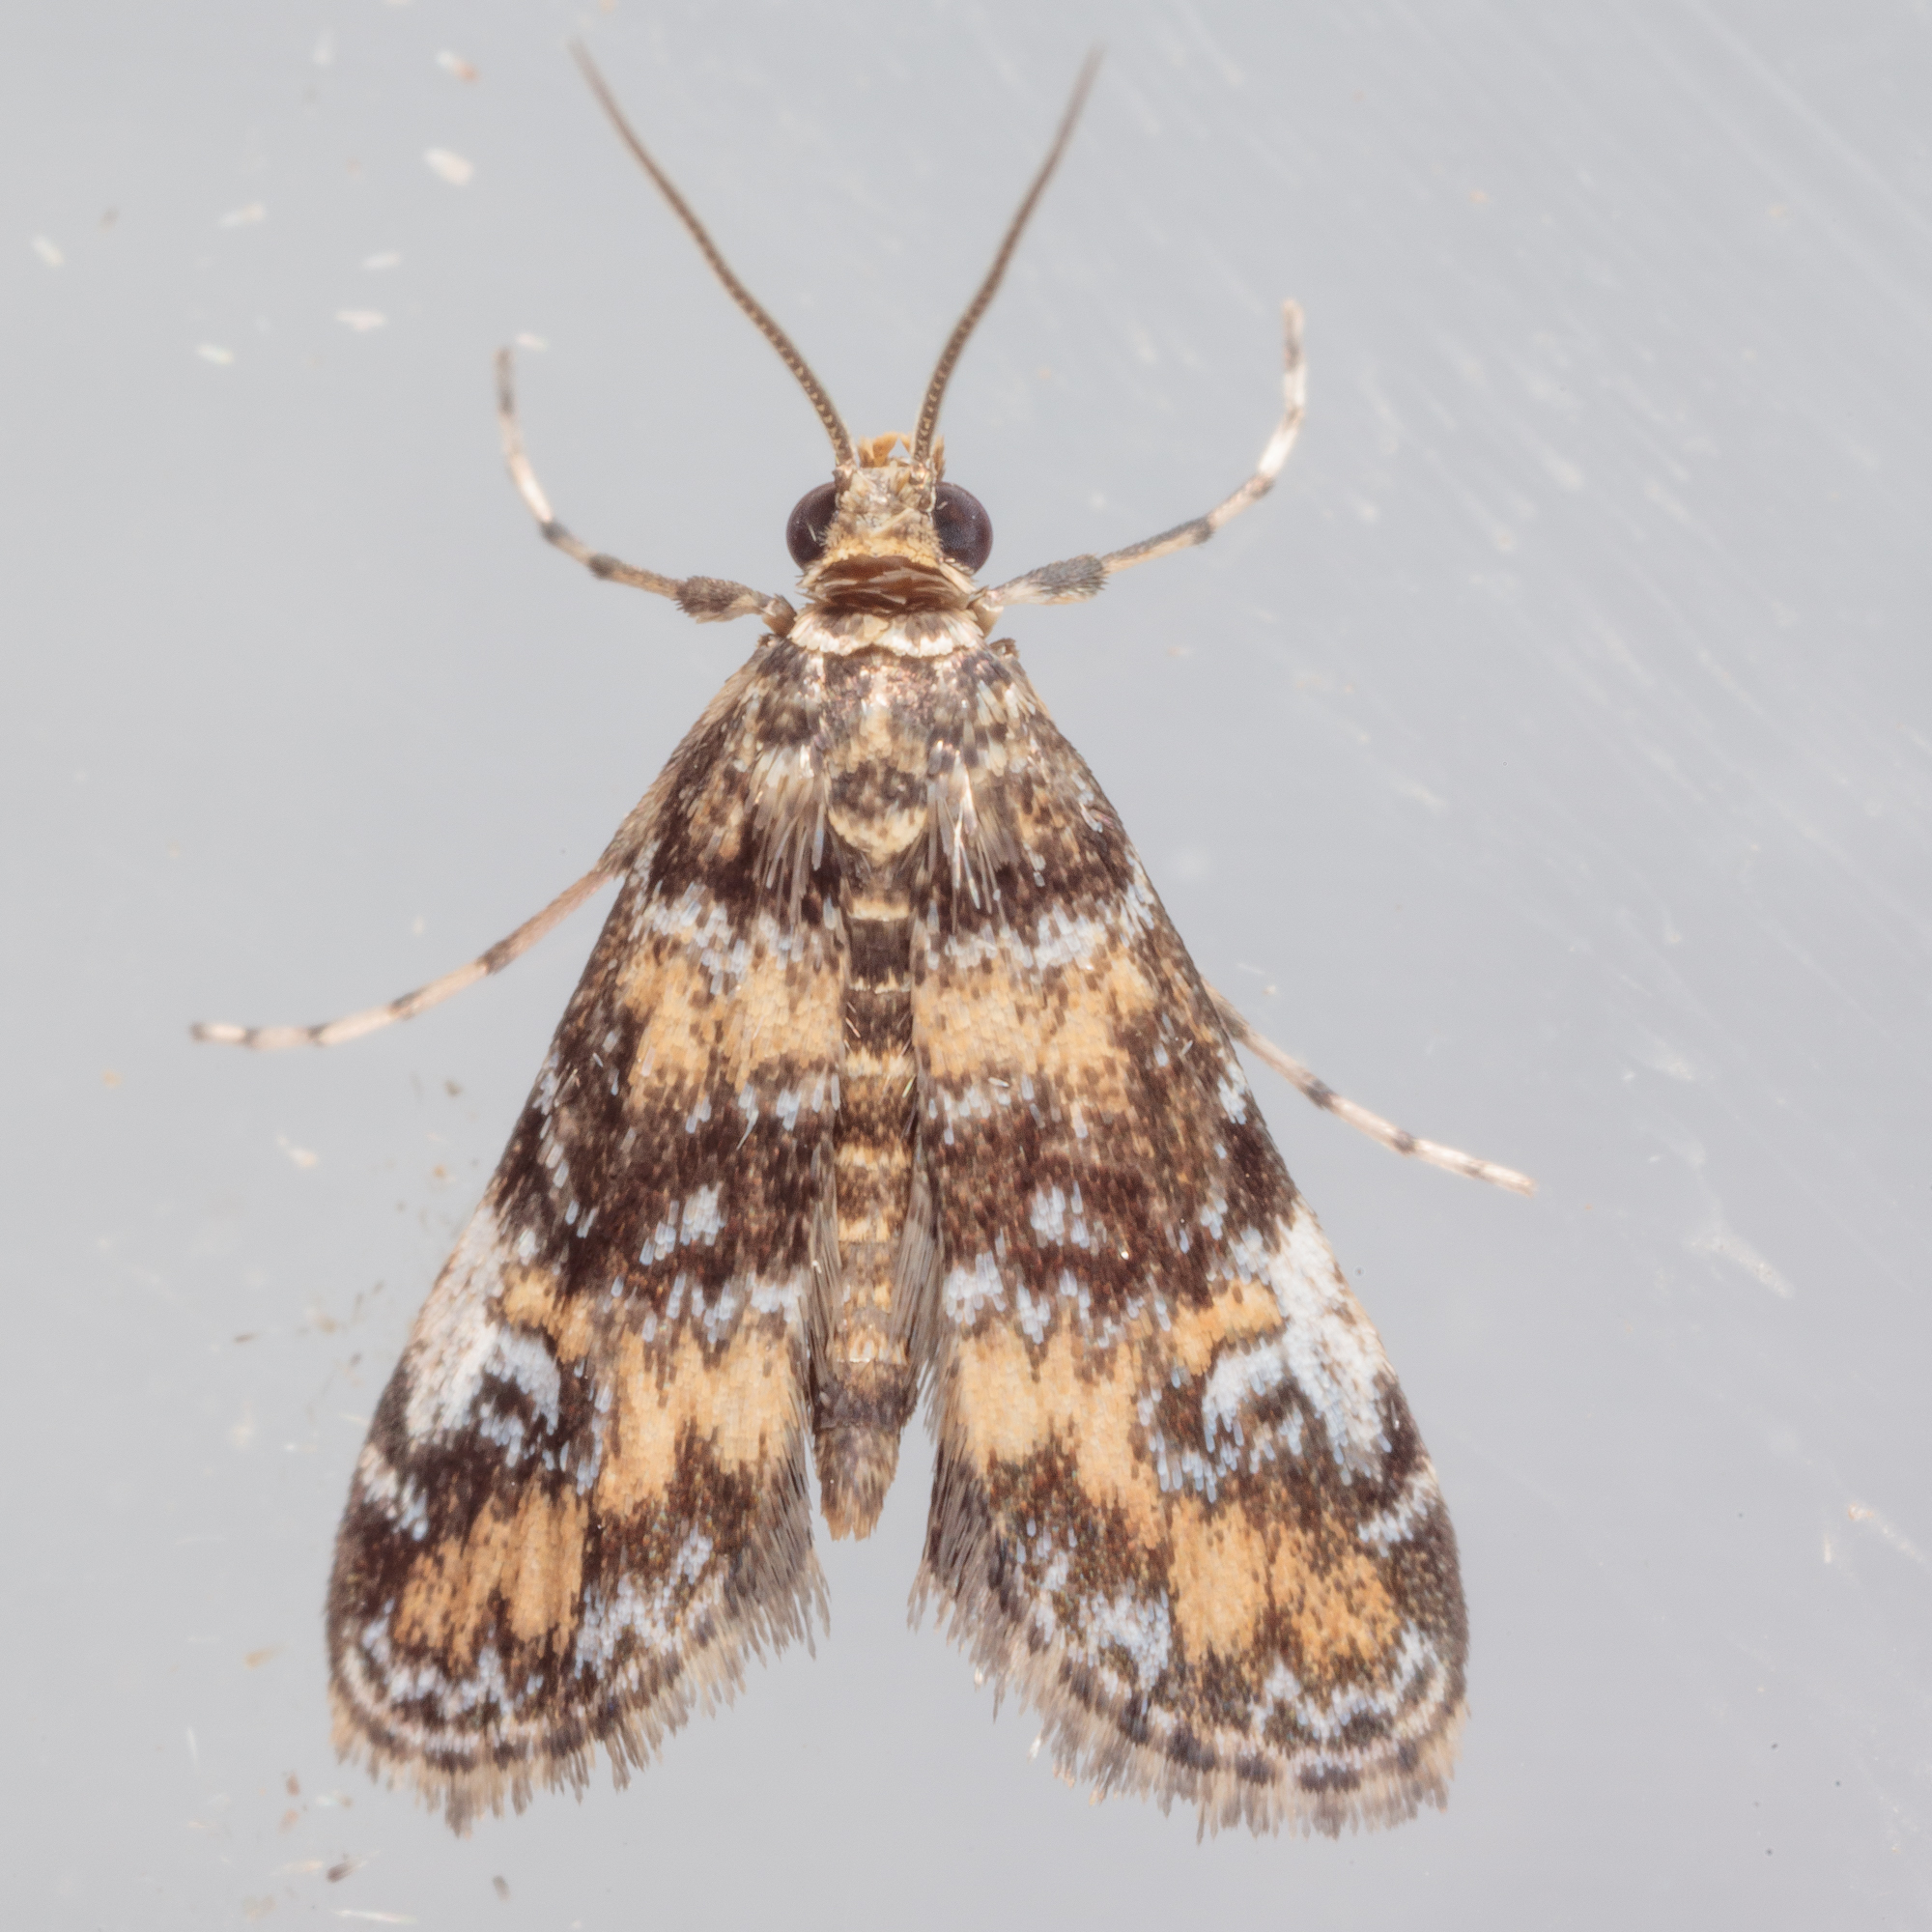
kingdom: Animalia
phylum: Arthropoda
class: Insecta
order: Lepidoptera
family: Crambidae
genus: Elophila
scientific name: Elophila obliteralis
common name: Waterlily leafcutter moth
